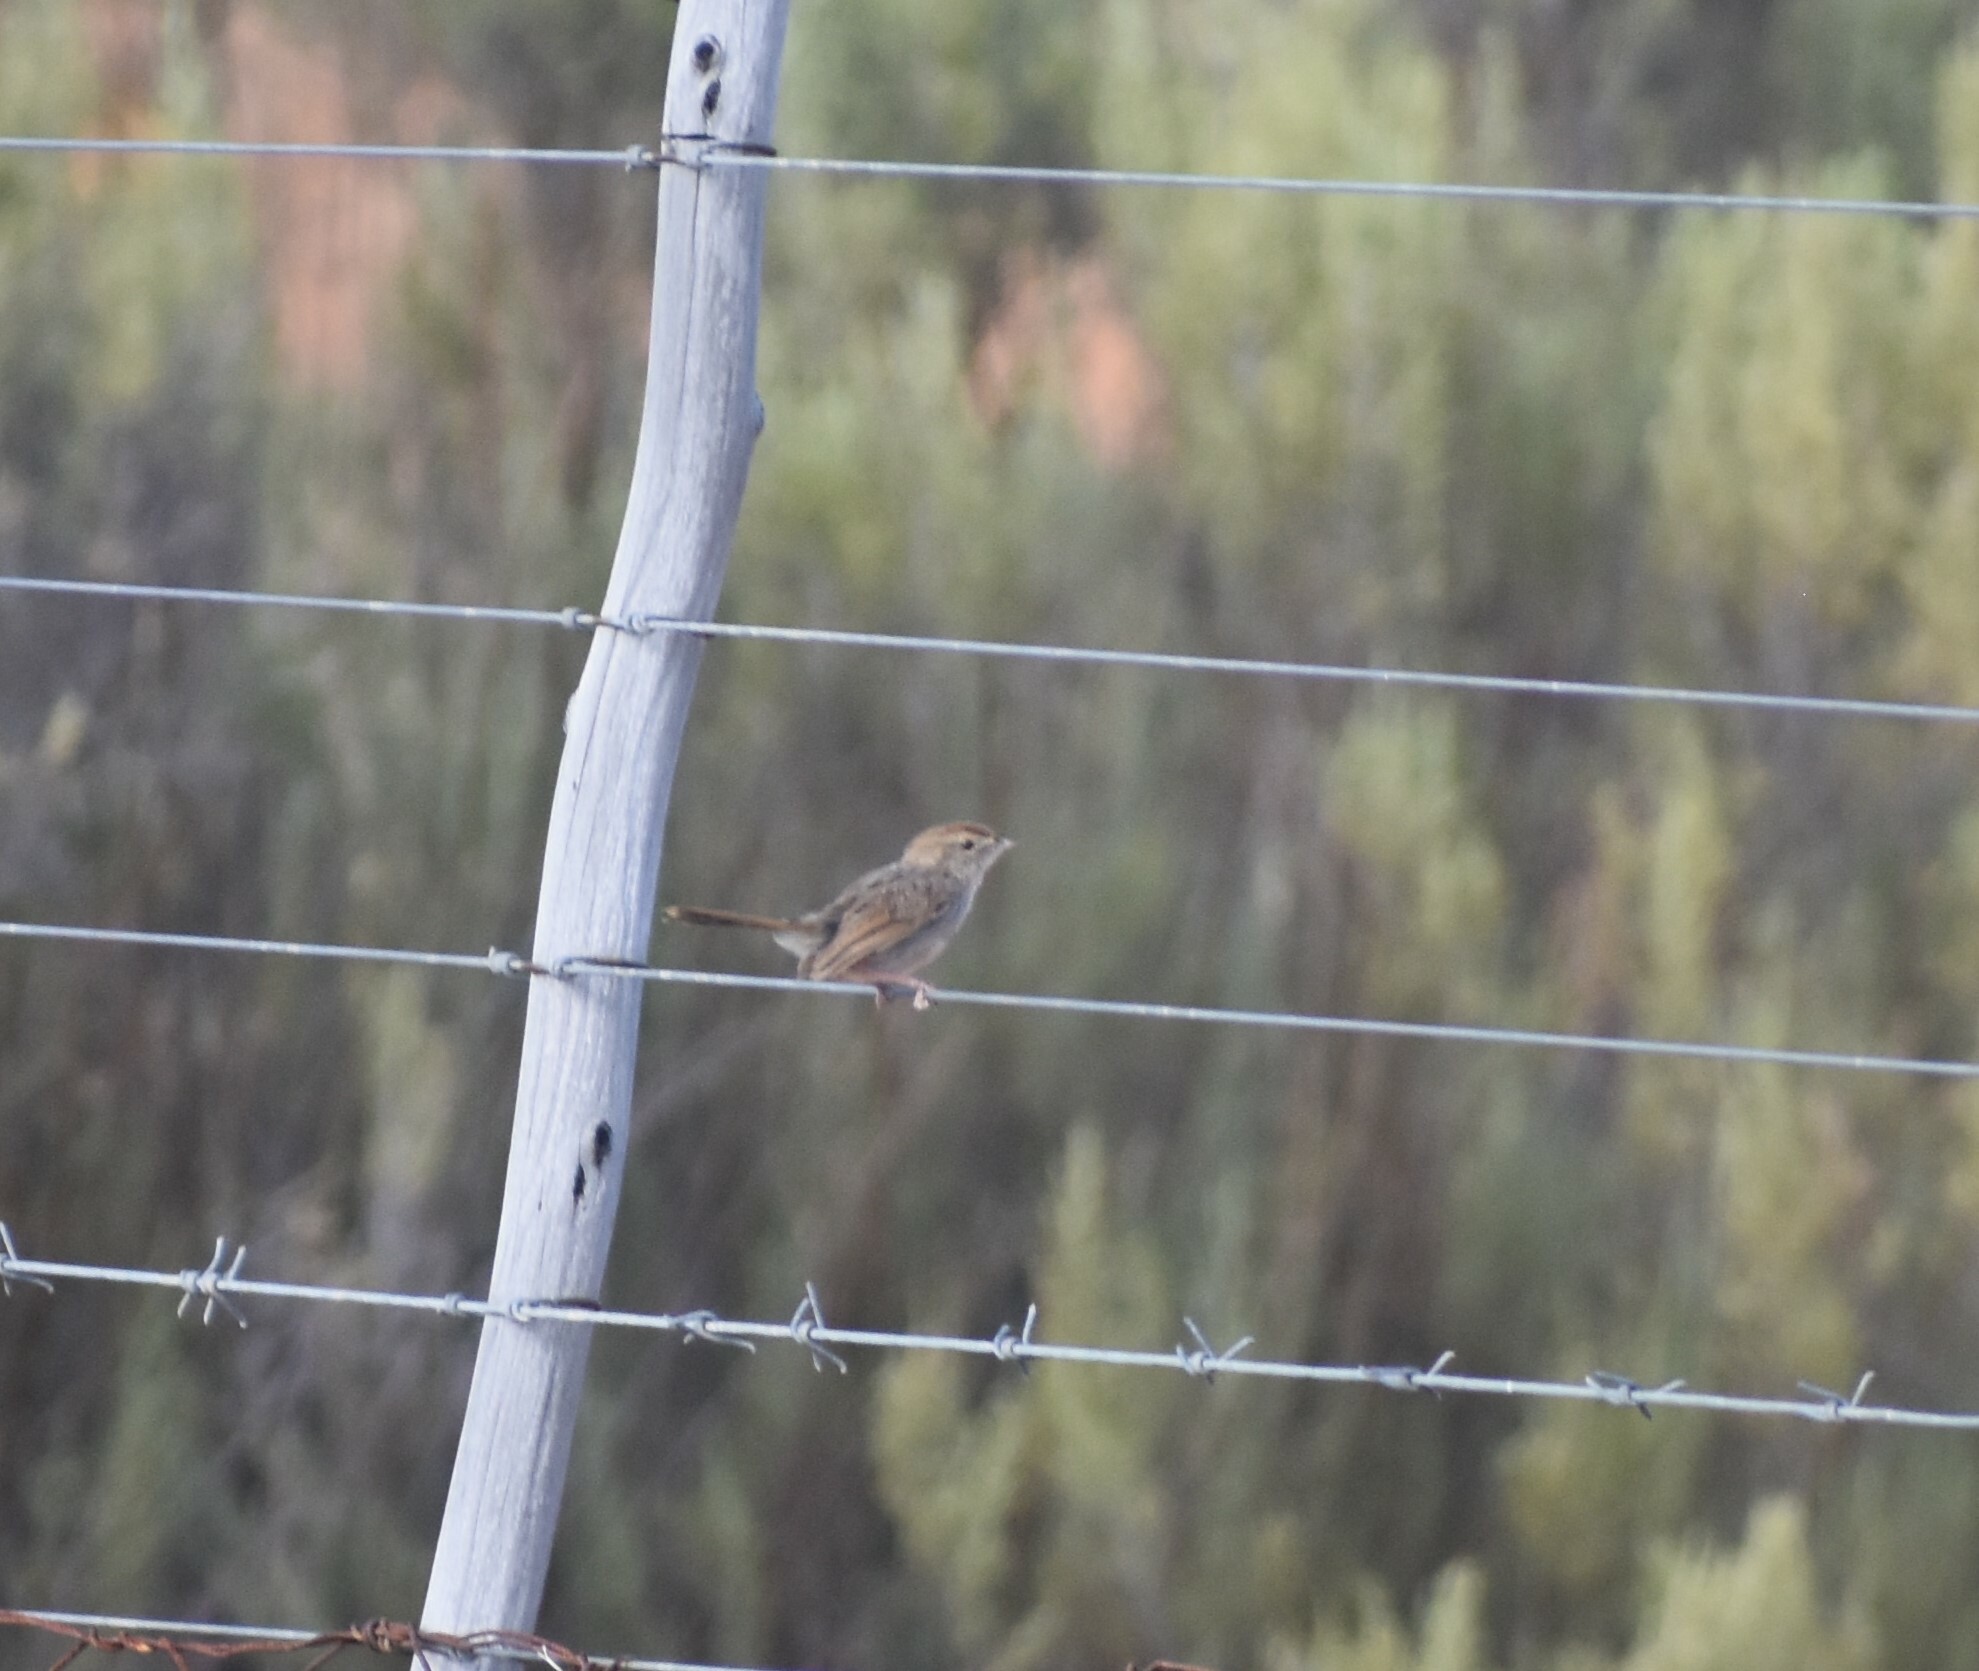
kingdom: Animalia
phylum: Chordata
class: Aves
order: Passeriformes
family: Cisticolidae
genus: Cisticola
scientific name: Cisticola subruficapilla
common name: Grey-backed cisticola
